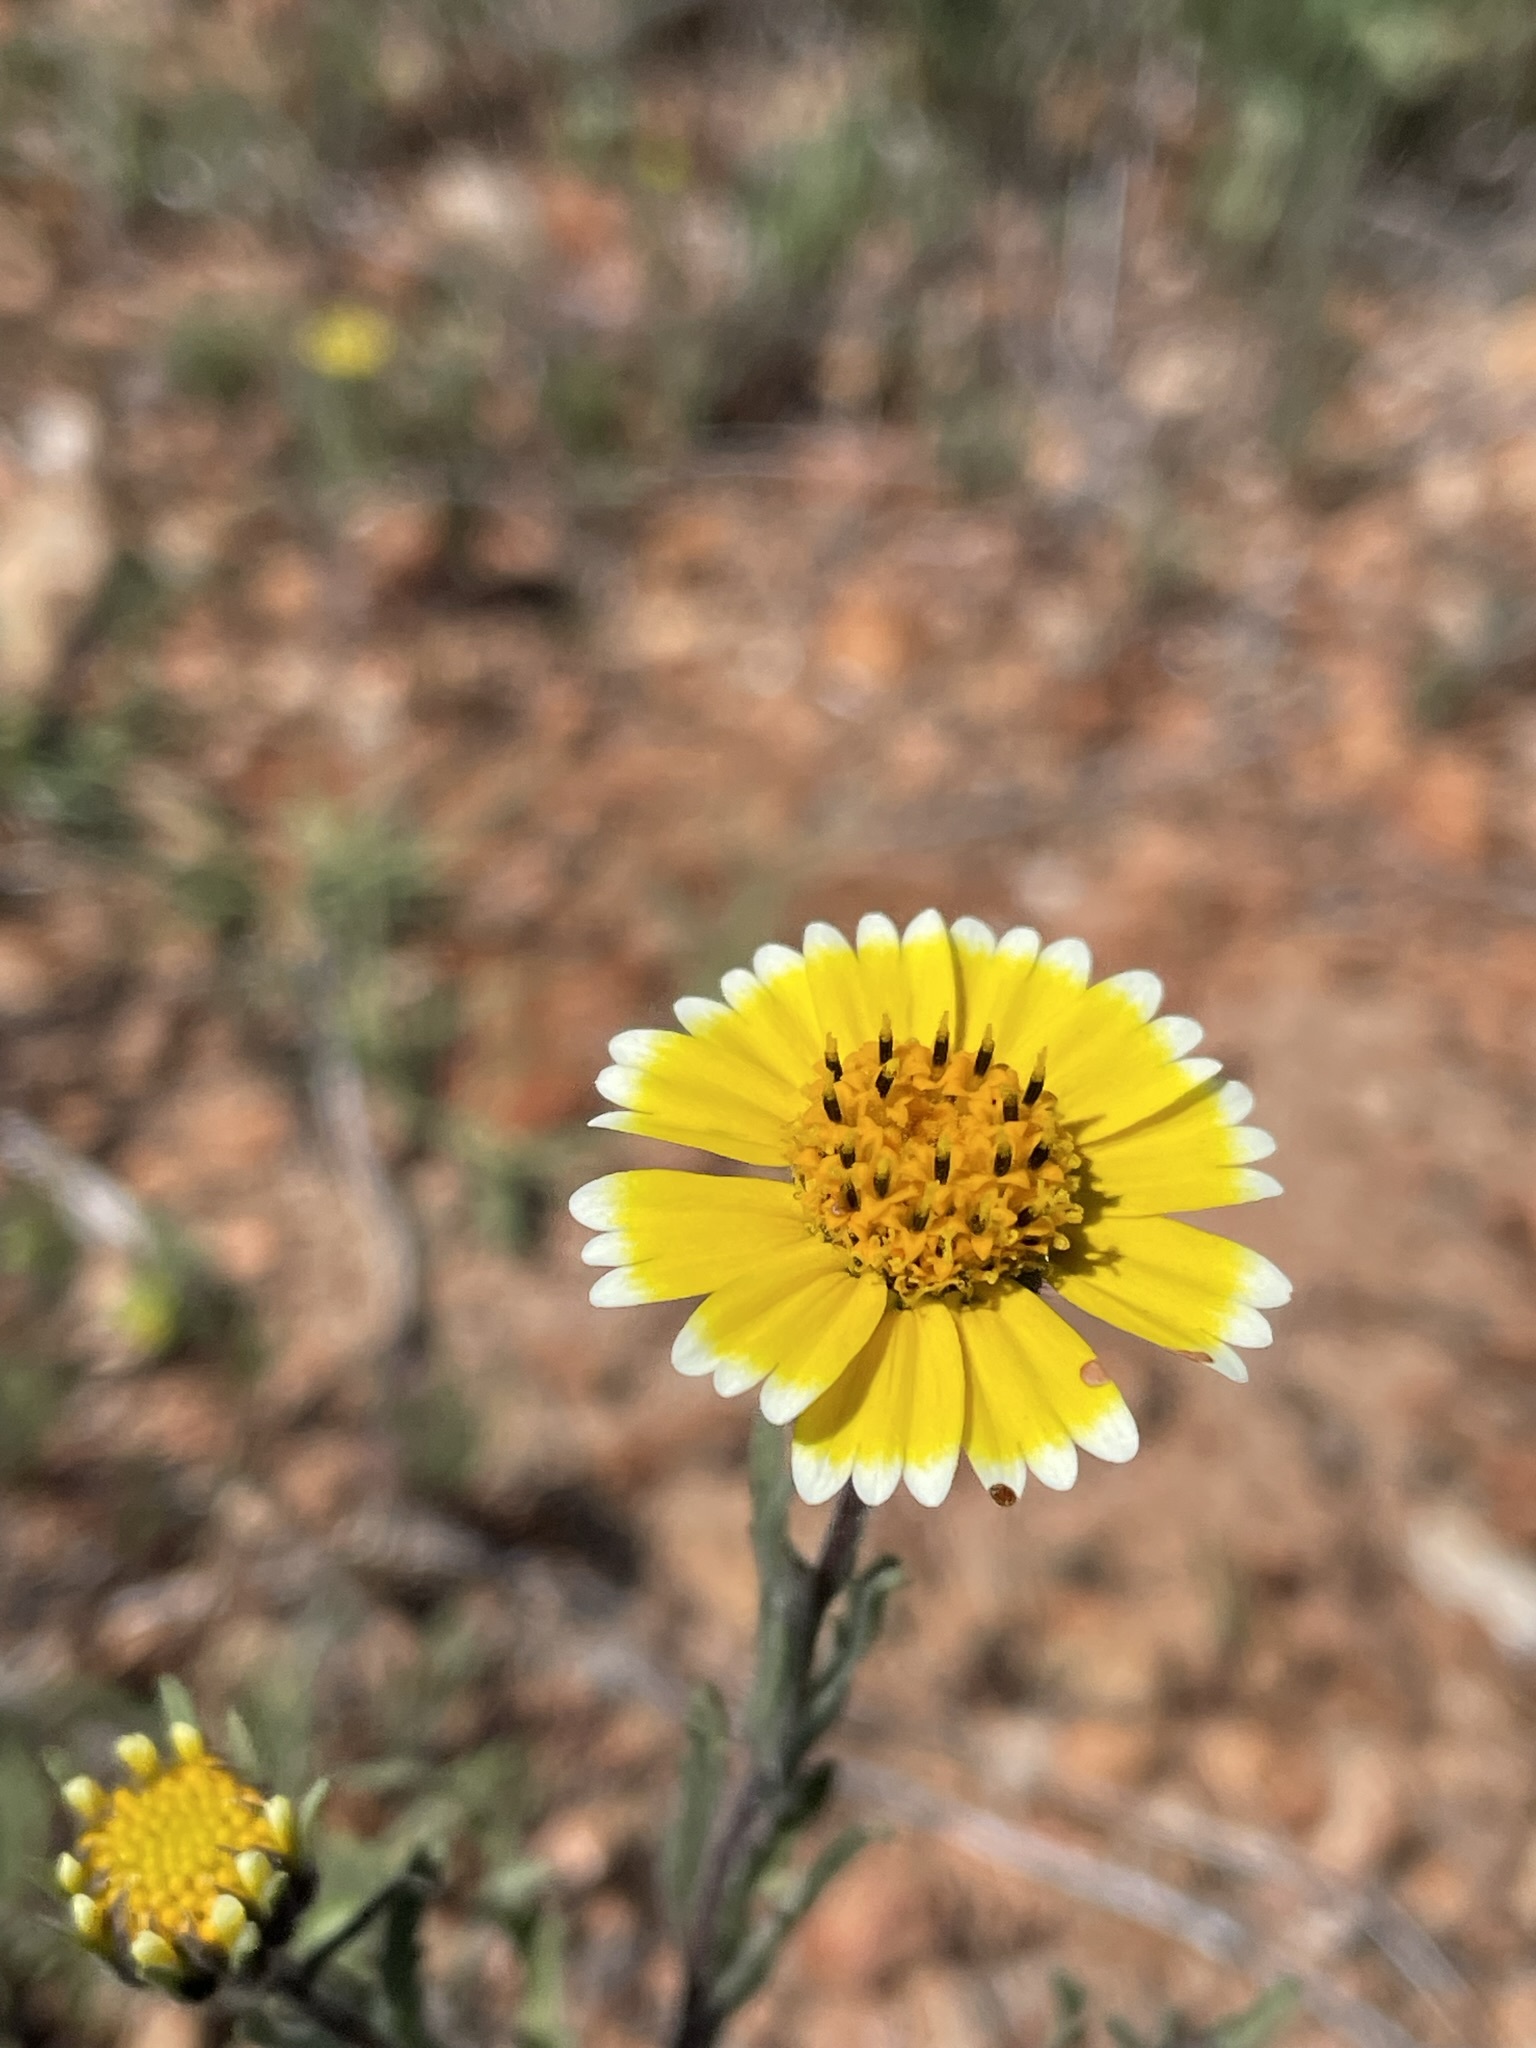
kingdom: Plantae
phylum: Tracheophyta
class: Magnoliopsida
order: Asterales
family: Asteraceae
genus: Layia
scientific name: Layia platyglossa
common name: Tidy-tips
